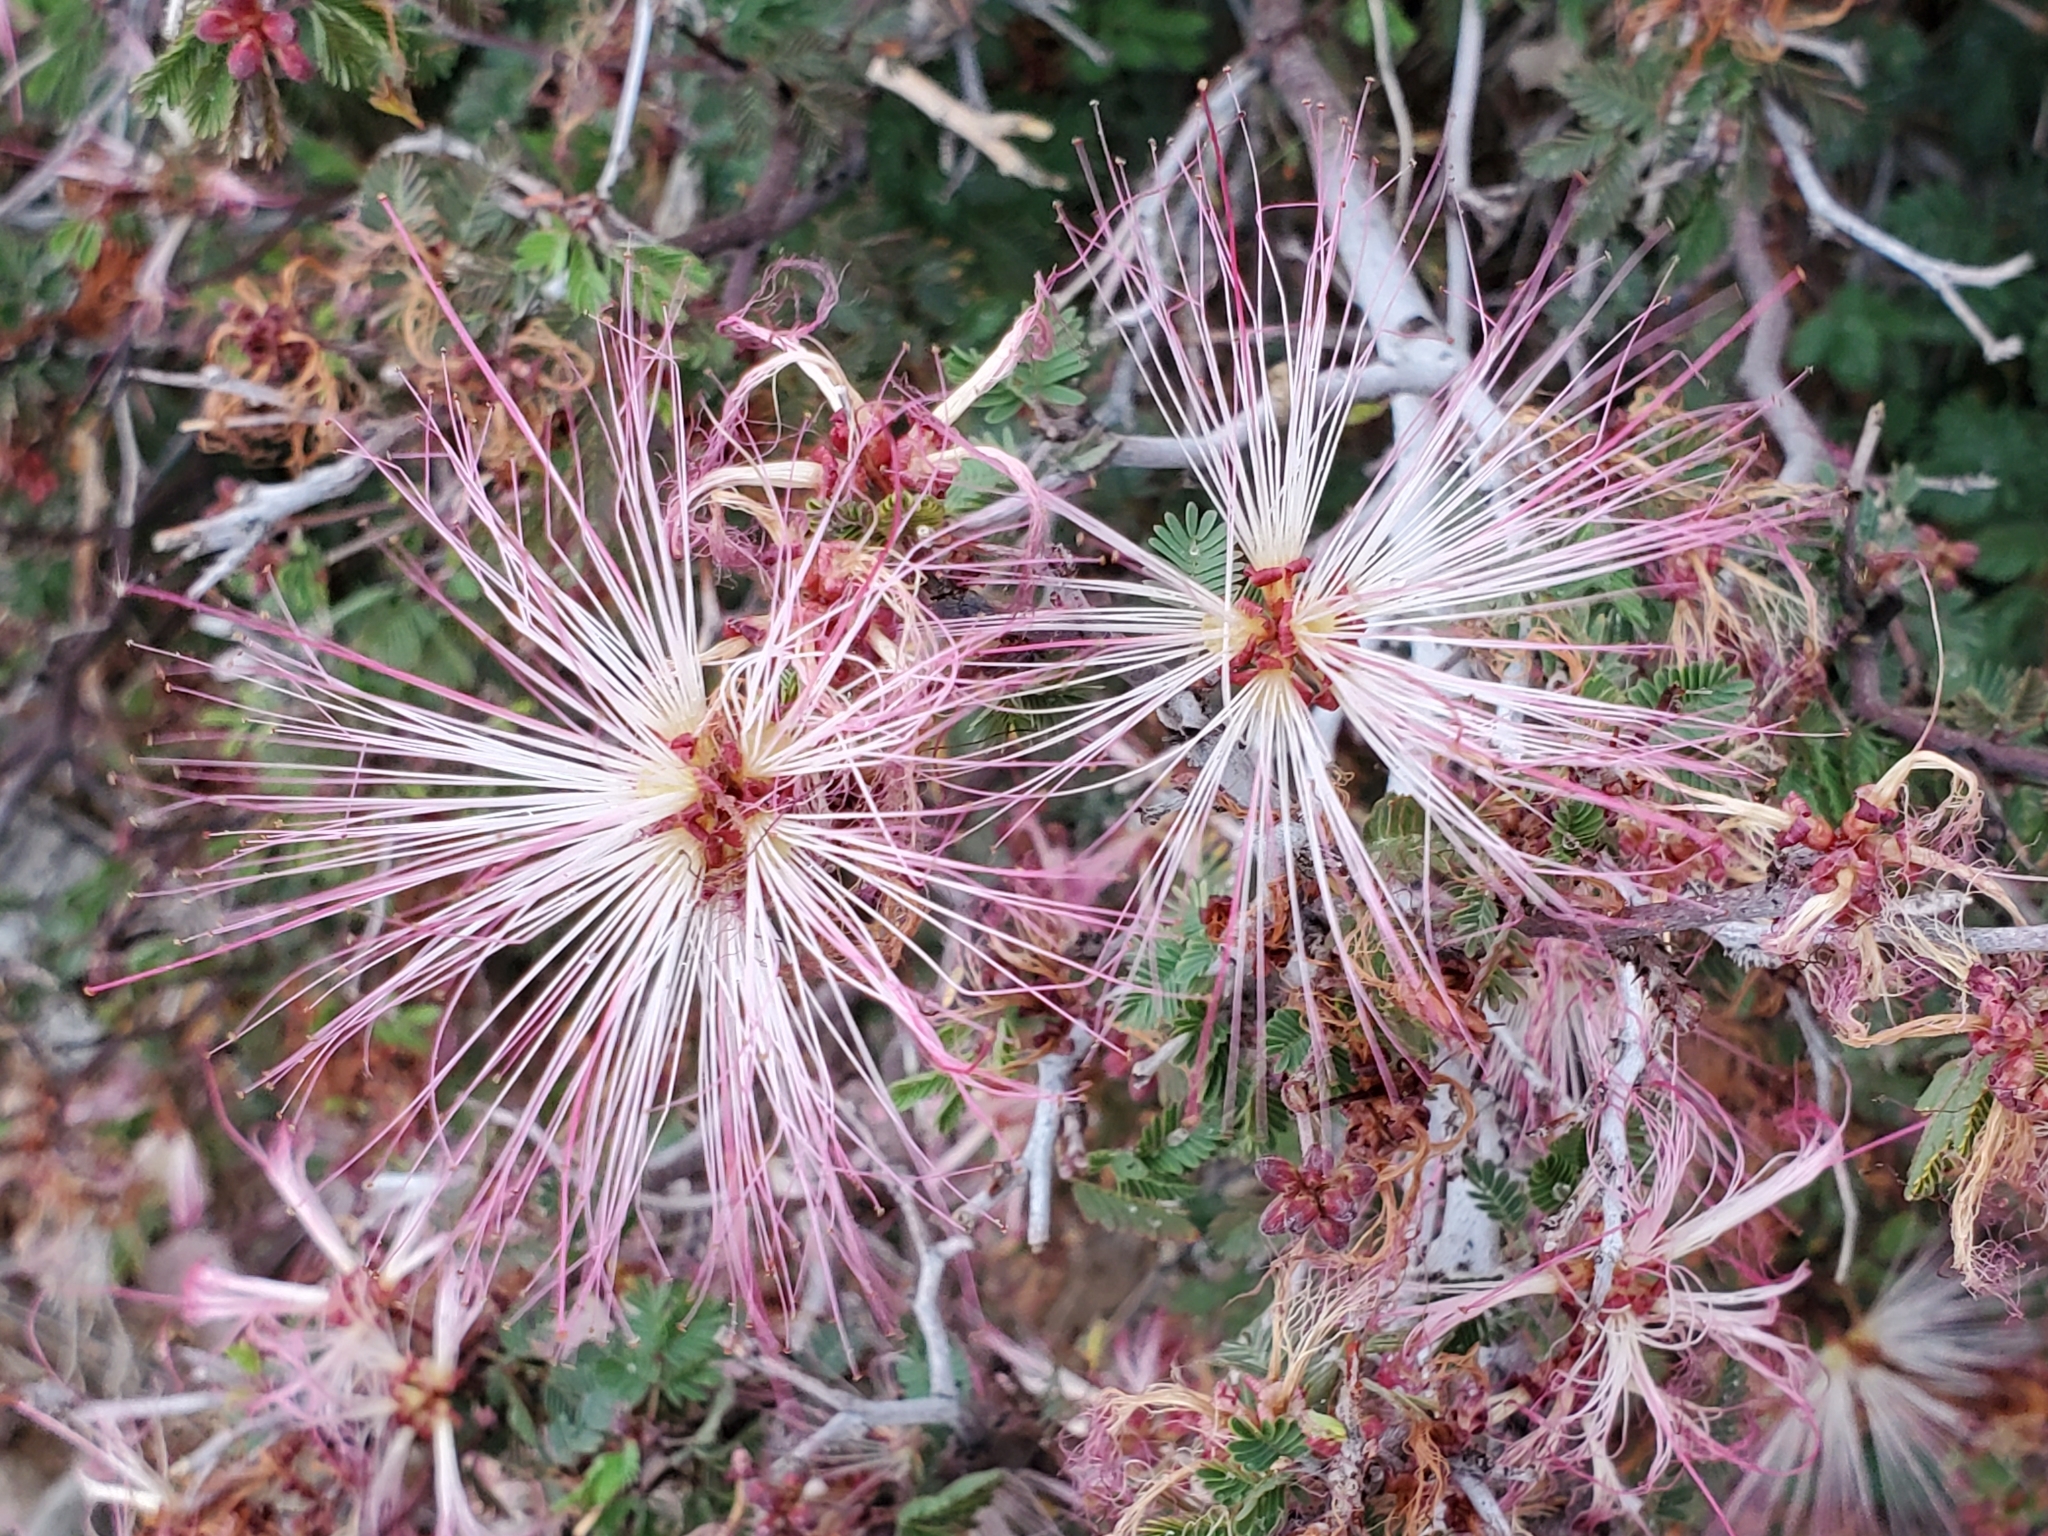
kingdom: Plantae
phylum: Tracheophyta
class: Magnoliopsida
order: Fabales
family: Fabaceae
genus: Calliandra
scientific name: Calliandra eriophylla
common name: Fairy-duster
